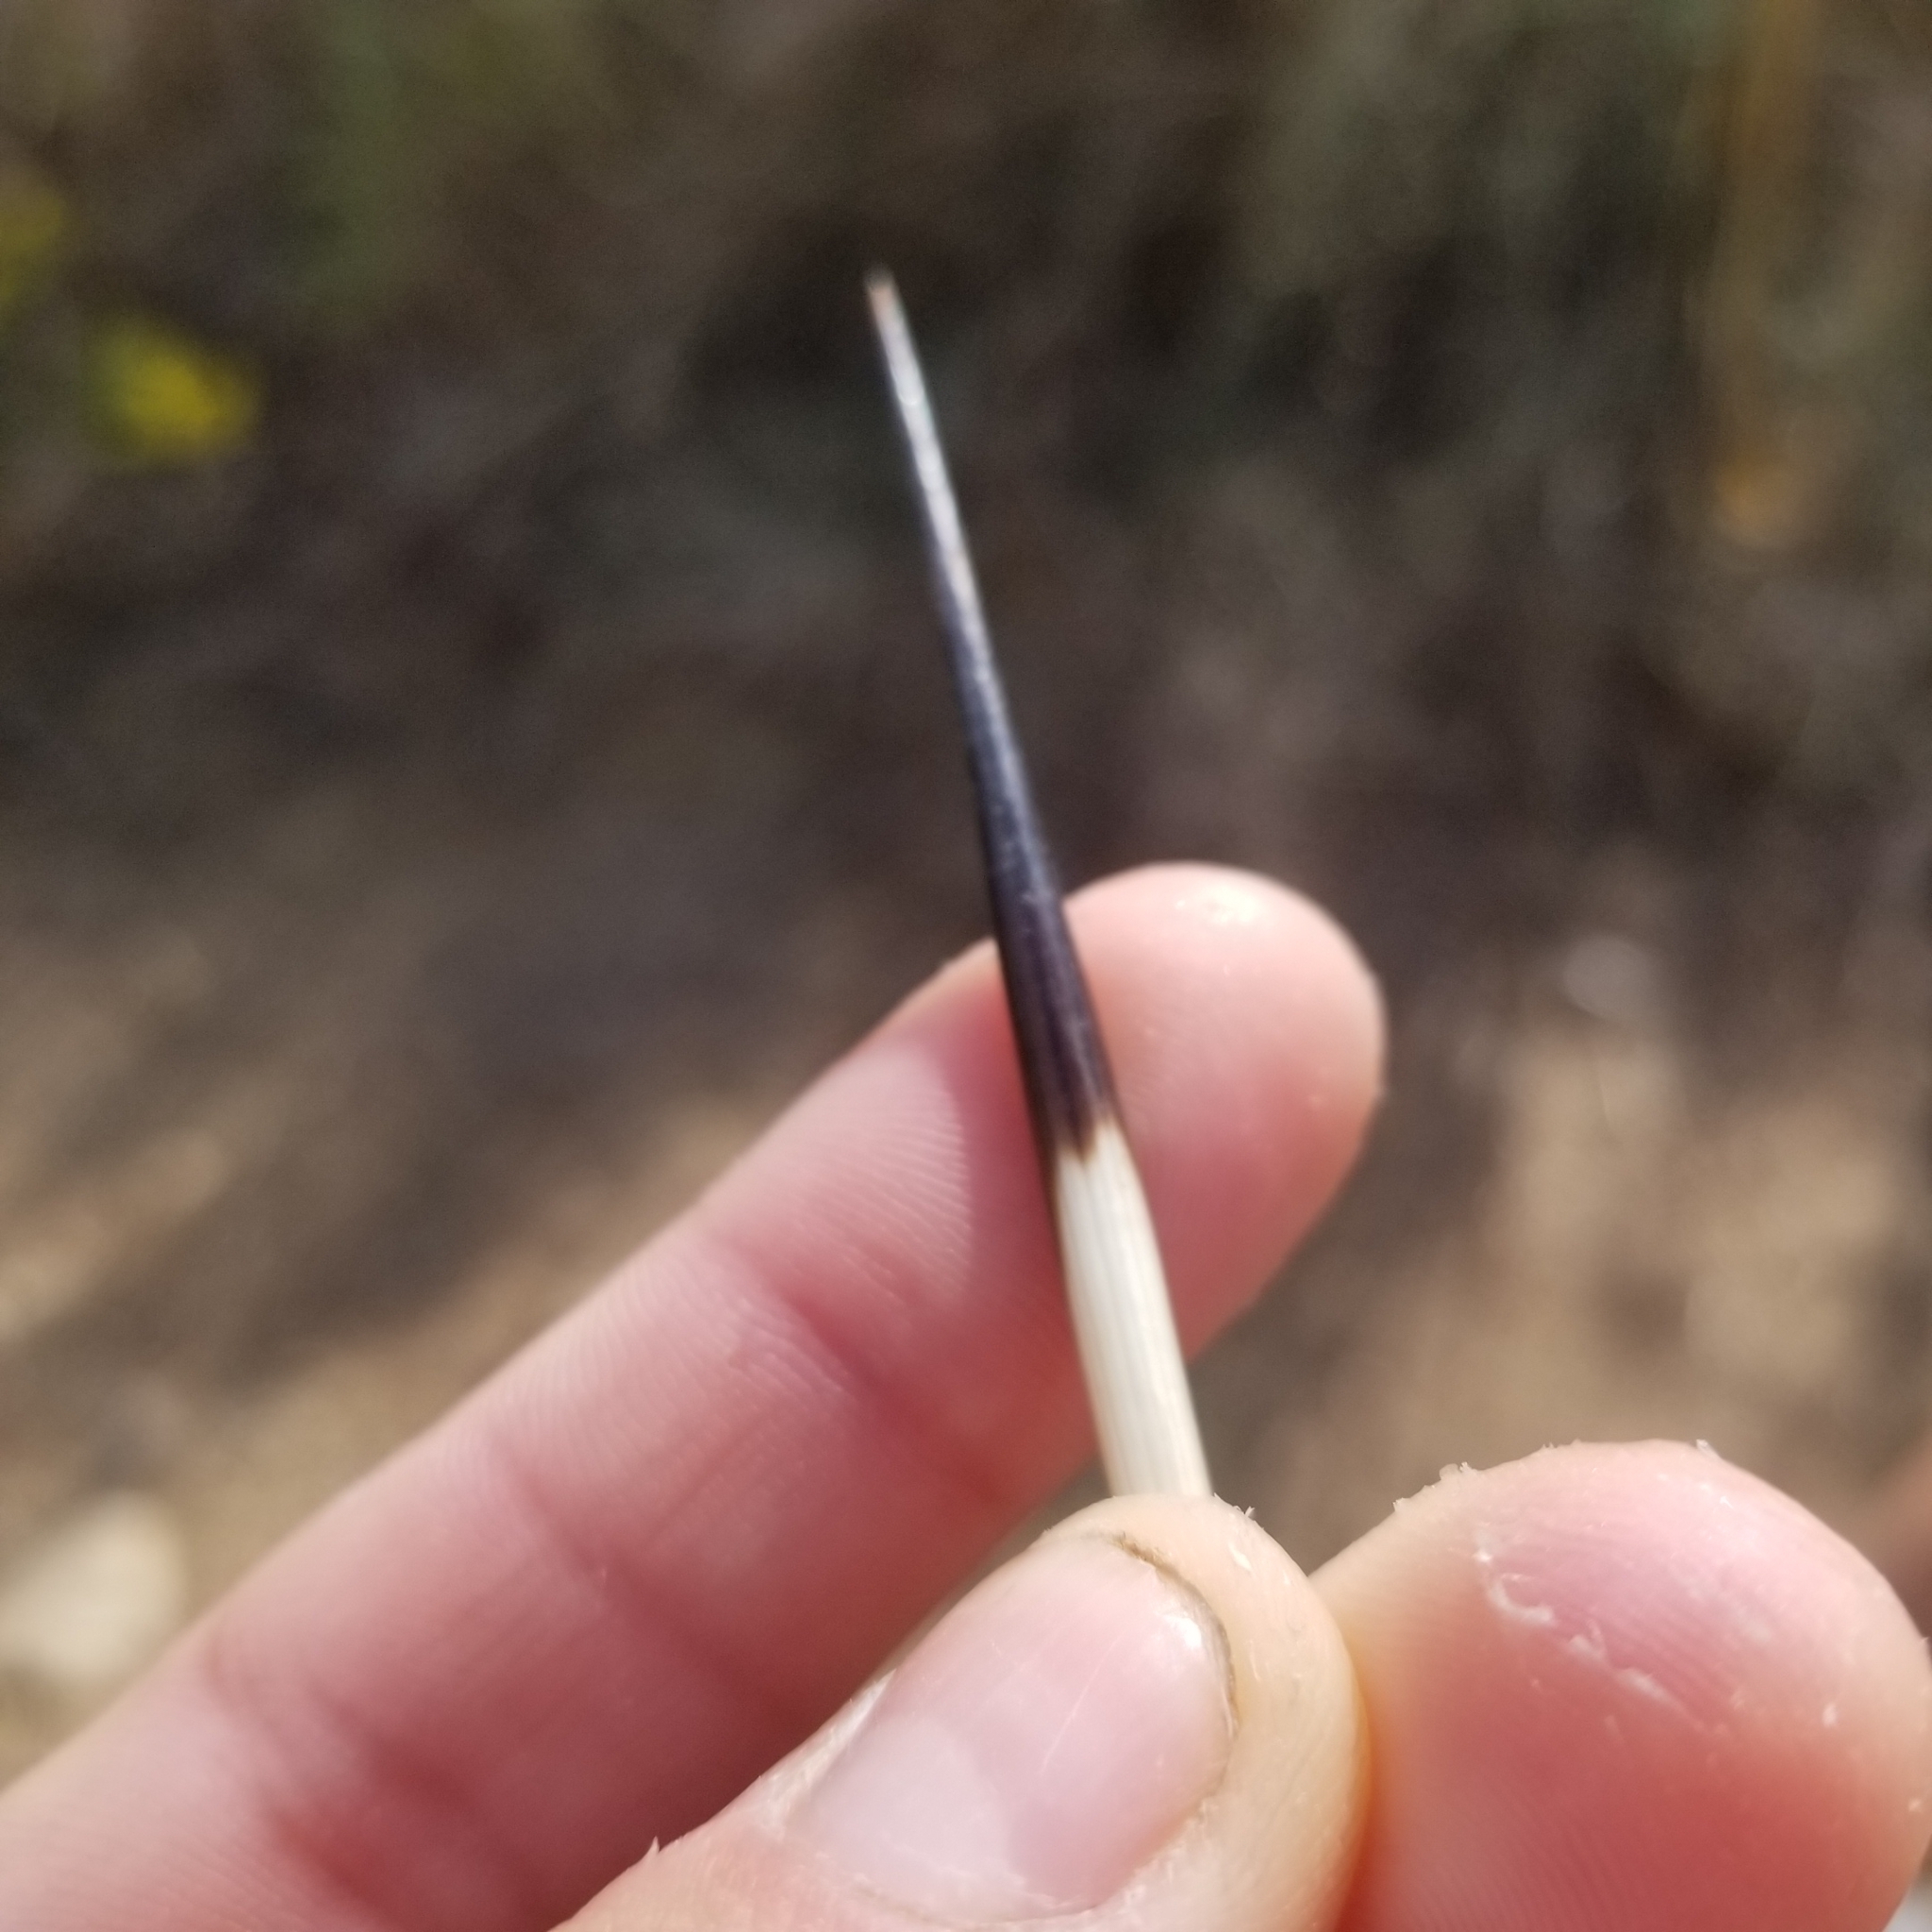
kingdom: Animalia
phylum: Chordata
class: Mammalia
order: Rodentia
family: Hystricidae
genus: Hystrix
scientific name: Hystrix indica
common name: Indian crested porcupine
